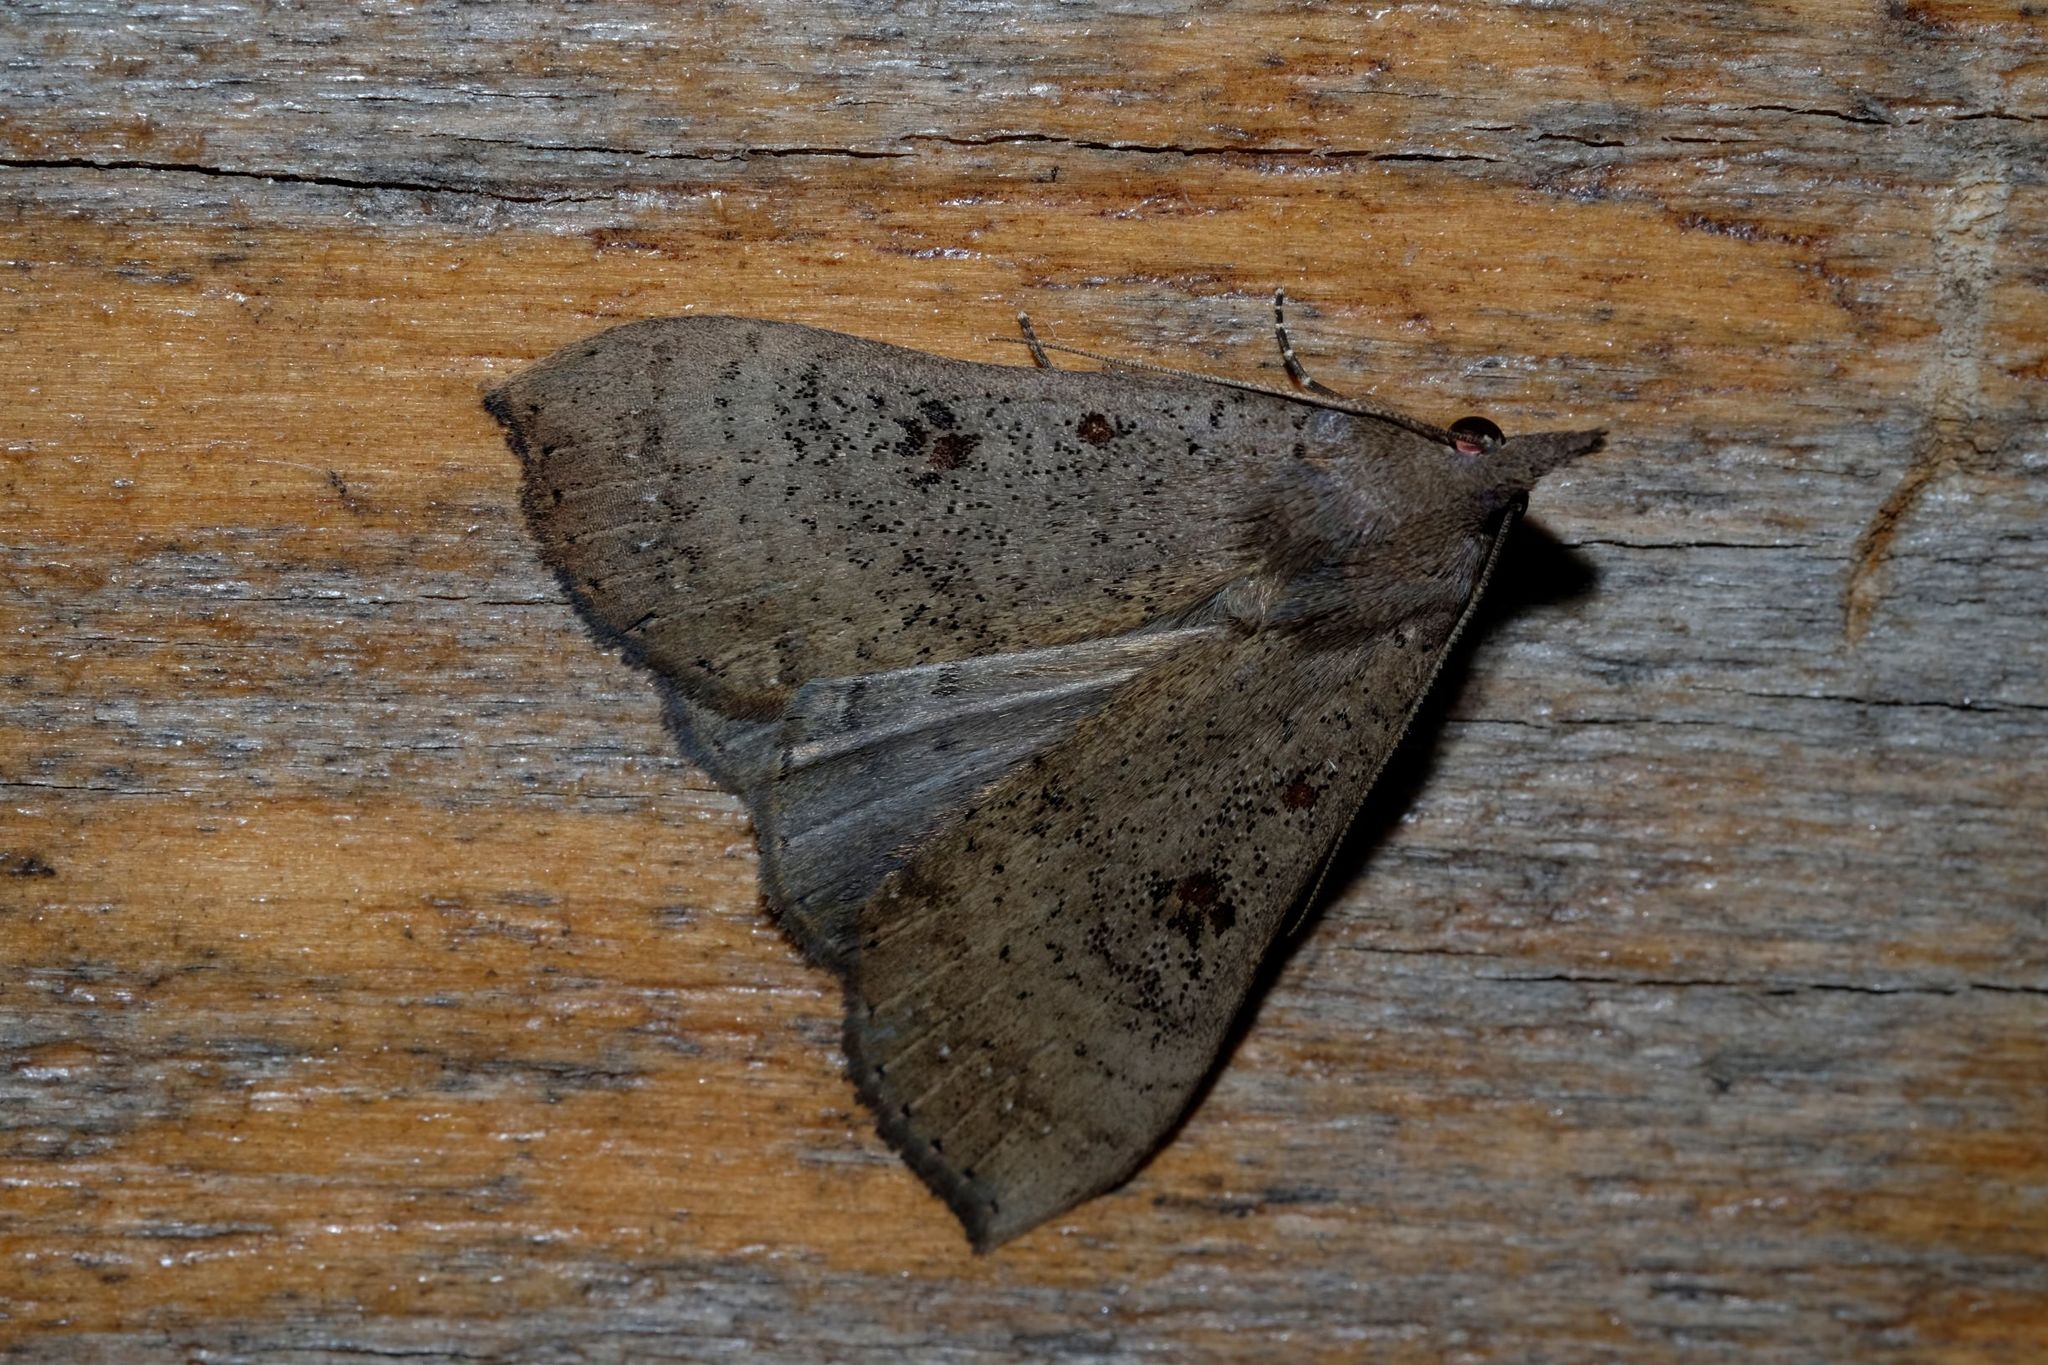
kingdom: Animalia
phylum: Arthropoda
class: Insecta
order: Lepidoptera
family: Erebidae
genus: Rhapsa
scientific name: Rhapsa suscitatalis
